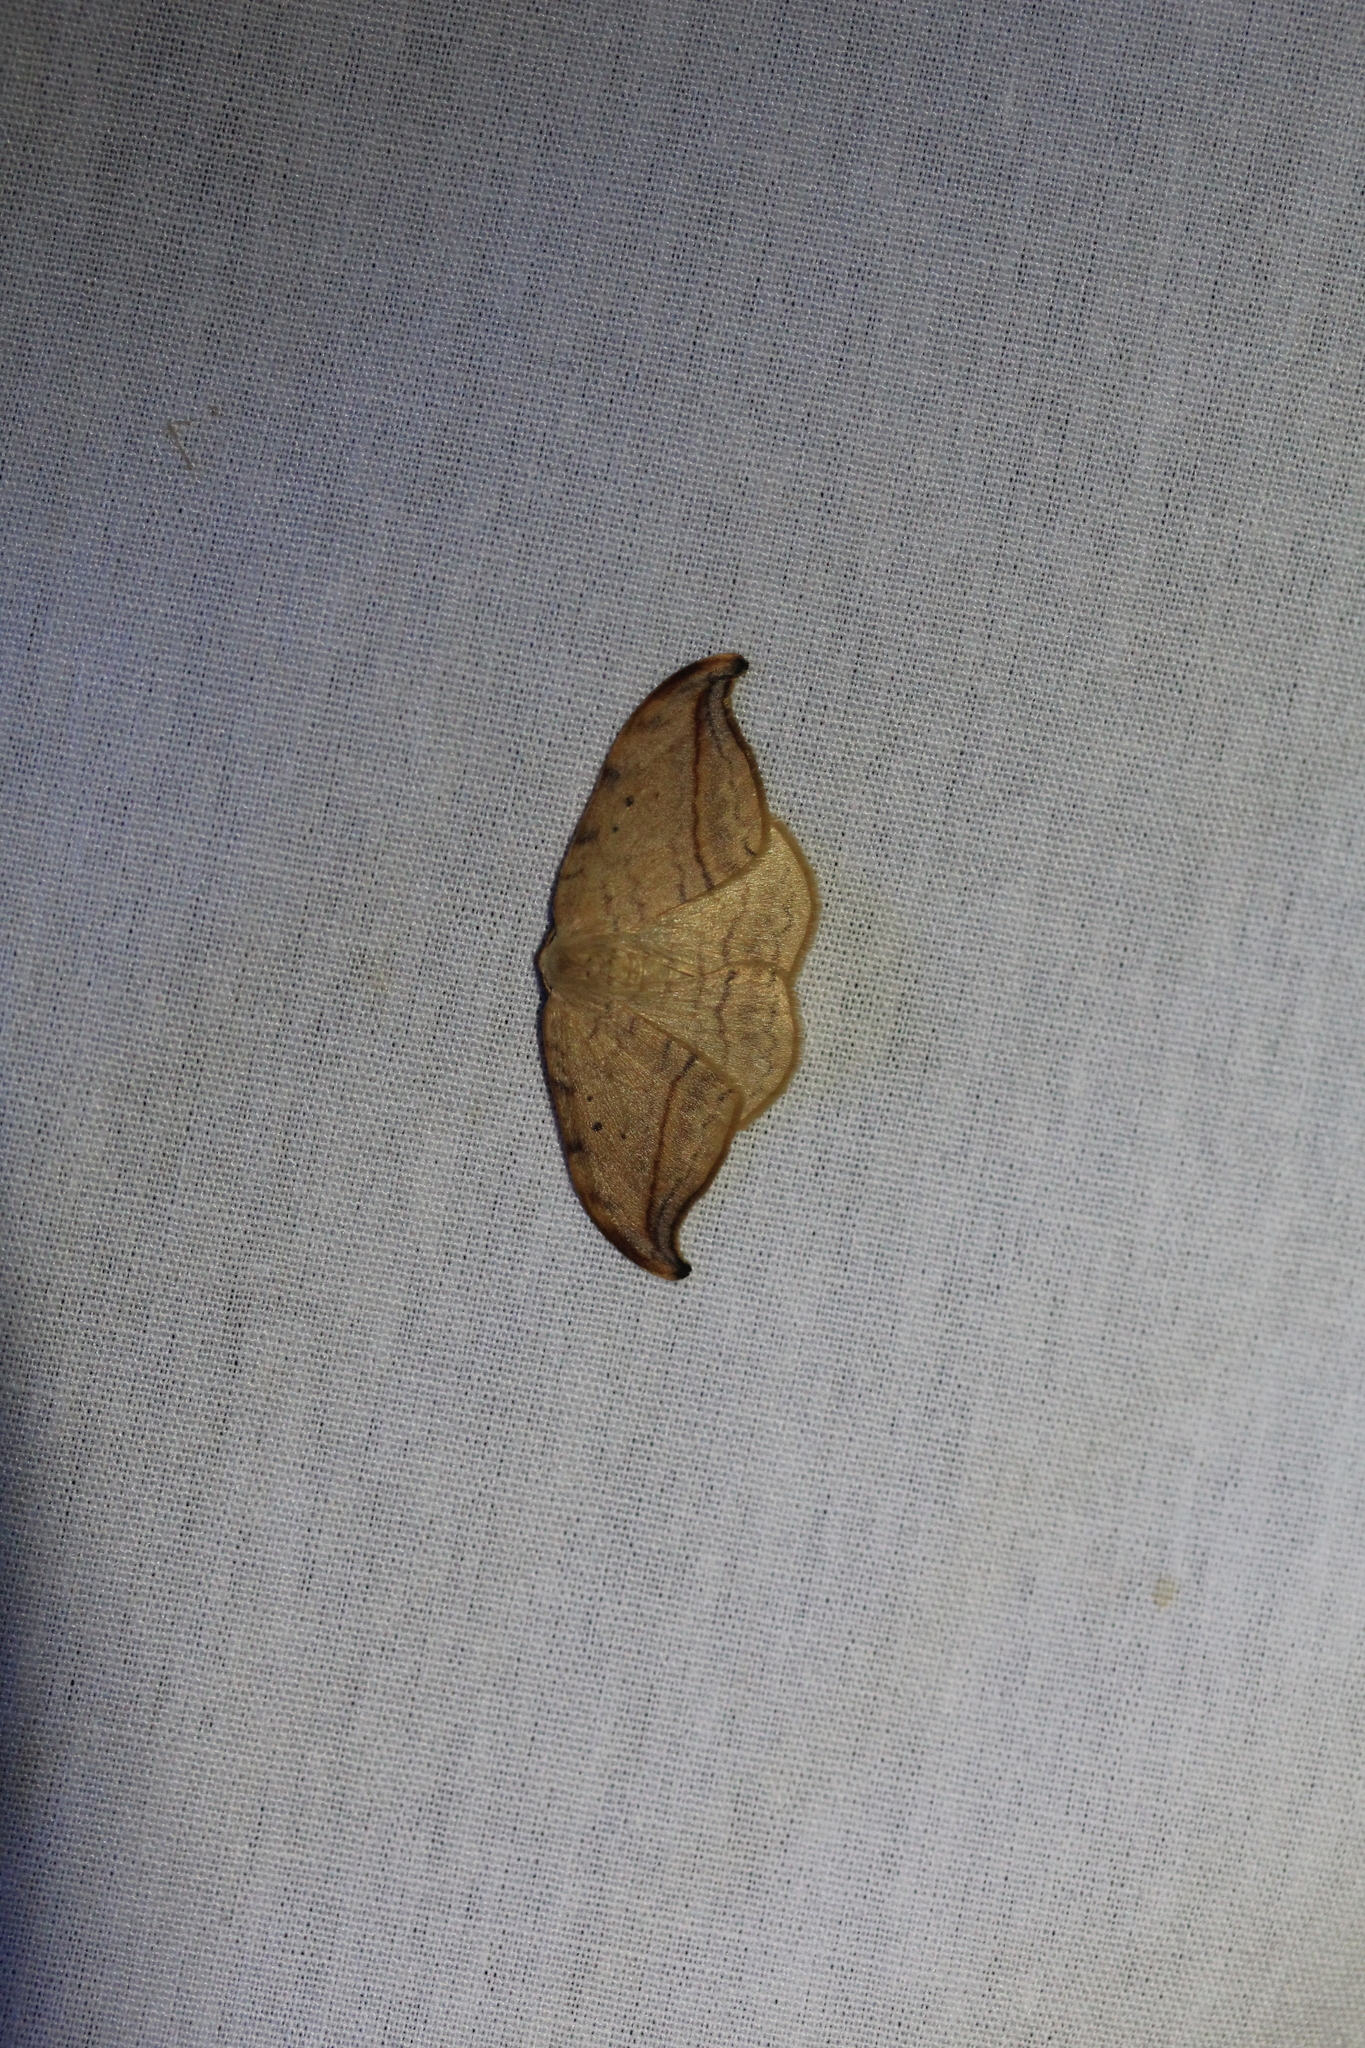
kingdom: Animalia
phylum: Arthropoda
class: Insecta
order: Lepidoptera
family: Drepanidae
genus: Drepana
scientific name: Drepana arcuata
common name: Arched hooktip moth
